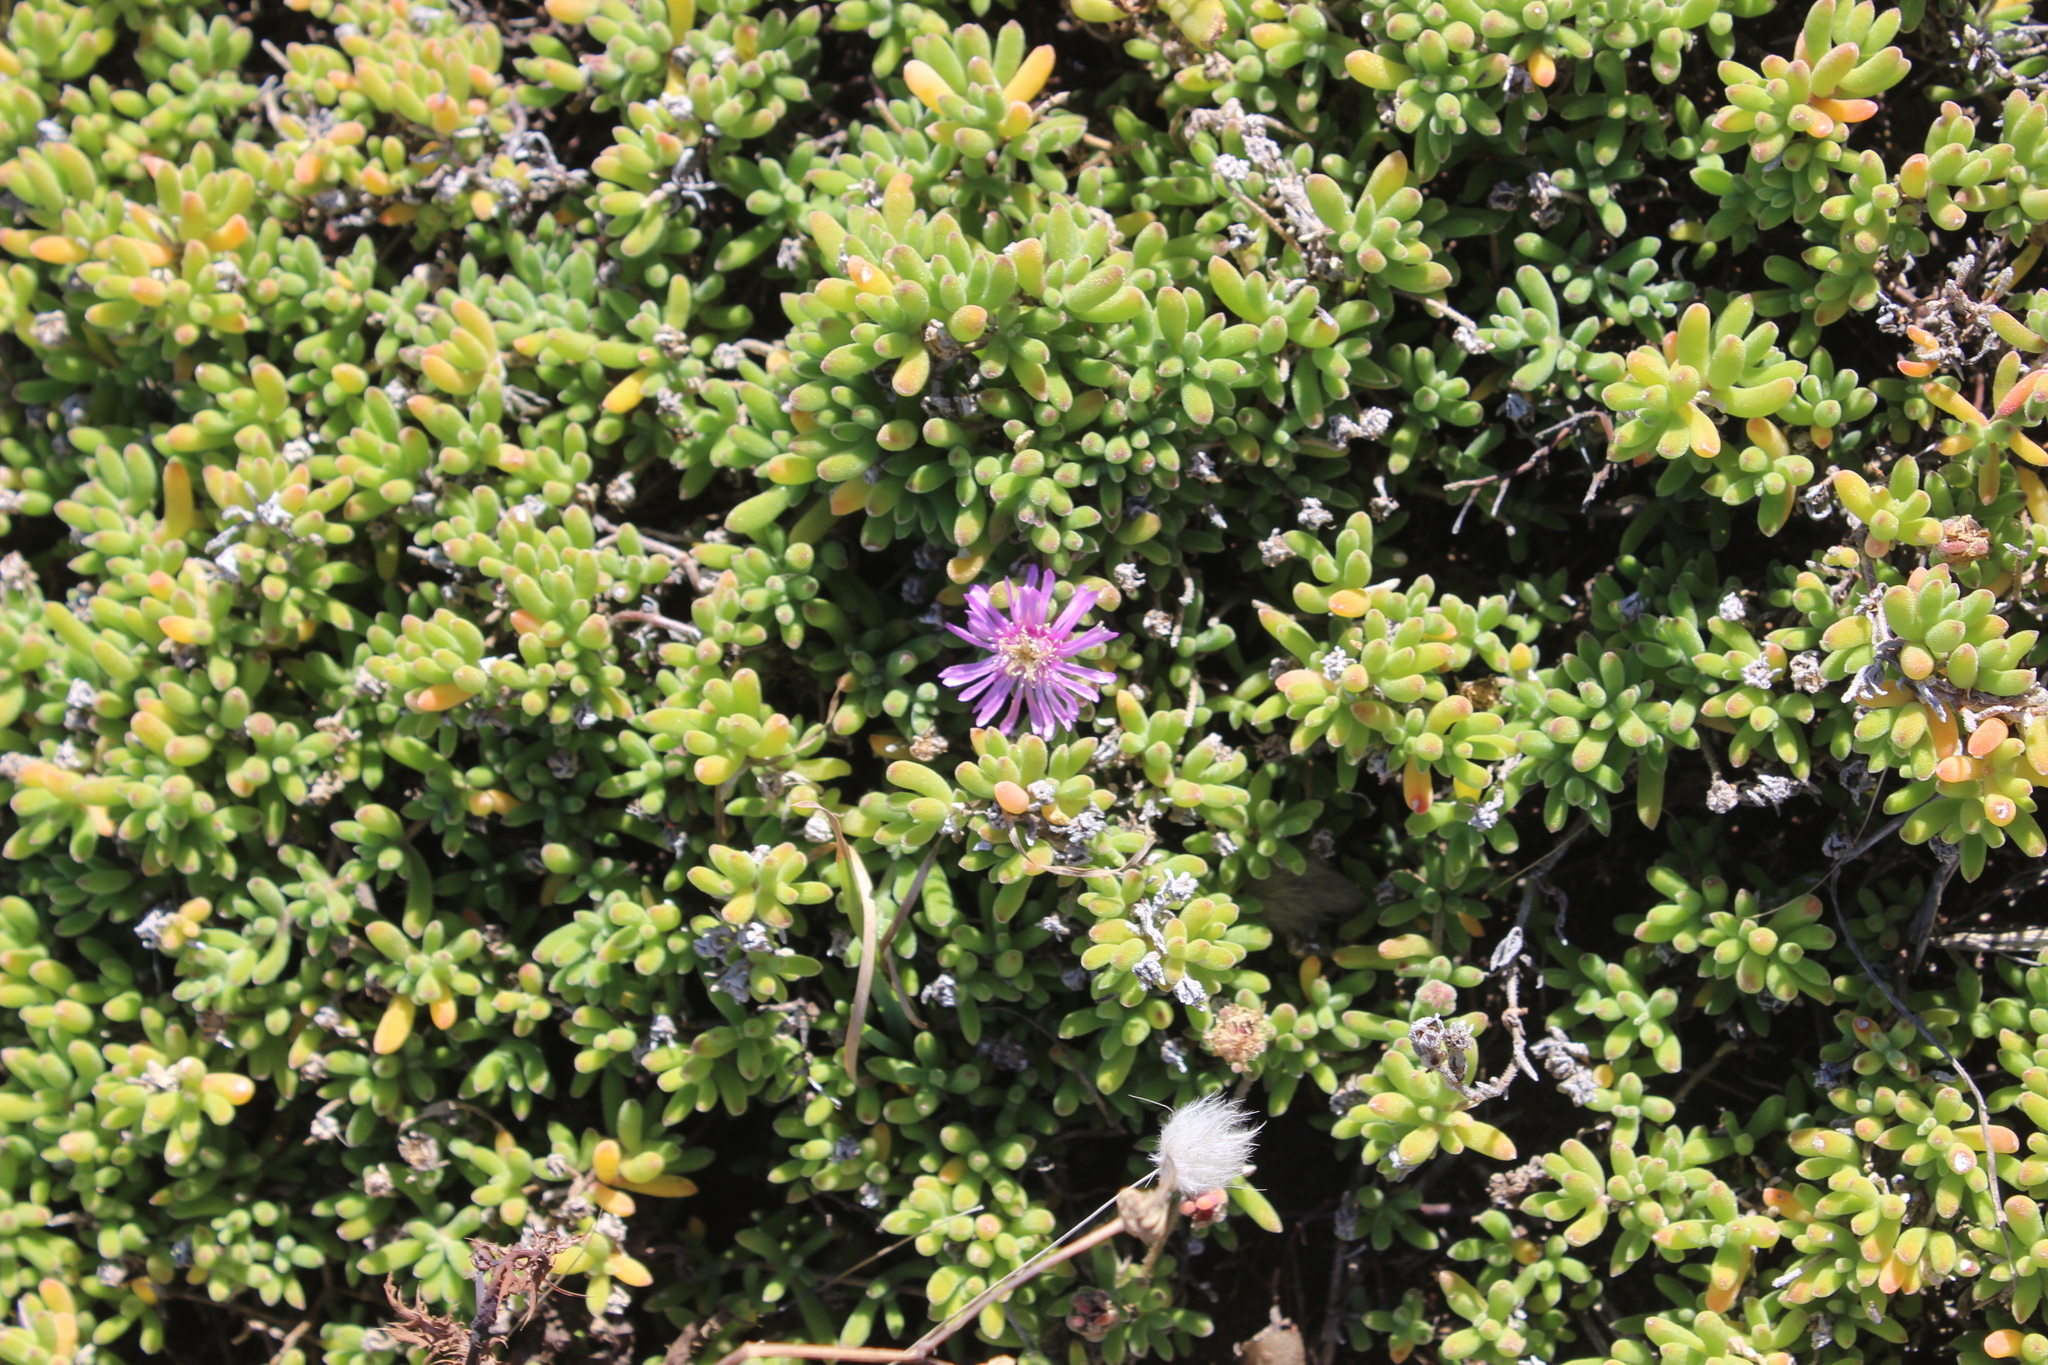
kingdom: Plantae
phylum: Tracheophyta
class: Magnoliopsida
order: Caryophyllales
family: Aizoaceae
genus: Drosanthemum
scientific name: Drosanthemum floribundum
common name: Pale dewplant
